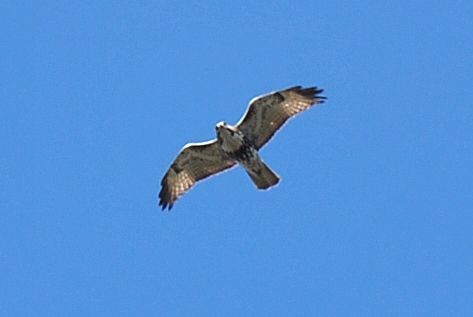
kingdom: Animalia
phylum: Chordata
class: Aves
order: Accipitriformes
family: Accipitridae
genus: Buteo
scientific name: Buteo jamaicensis
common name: Red-tailed hawk
